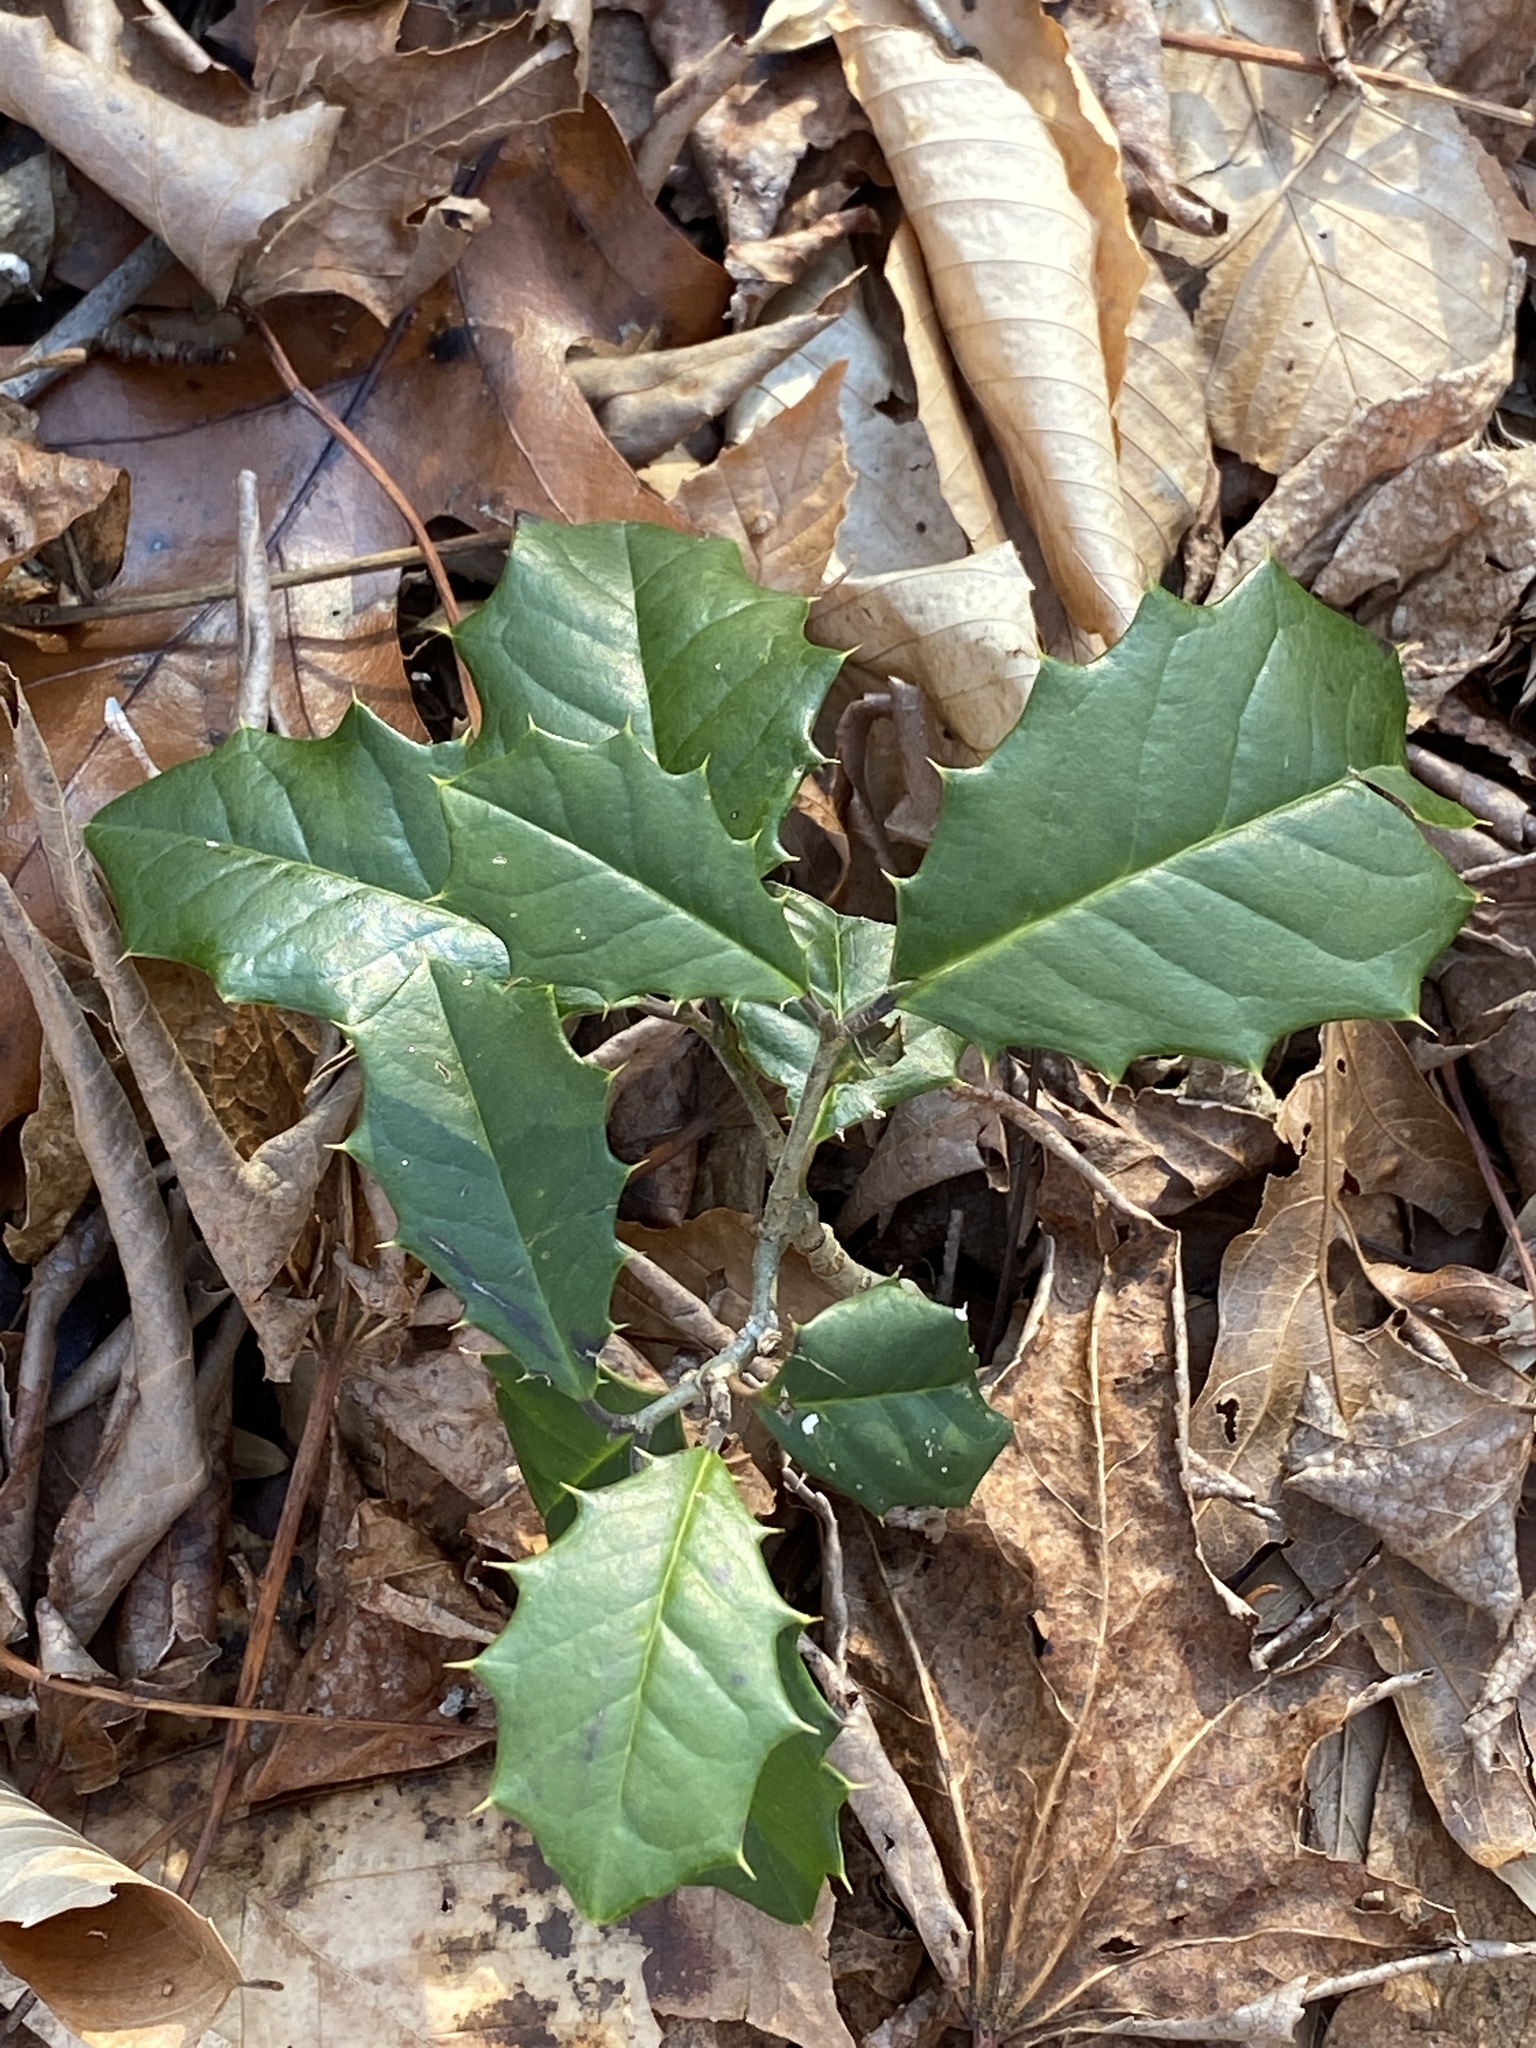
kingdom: Plantae
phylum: Tracheophyta
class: Magnoliopsida
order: Aquifoliales
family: Aquifoliaceae
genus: Ilex
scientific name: Ilex opaca
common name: American holly
